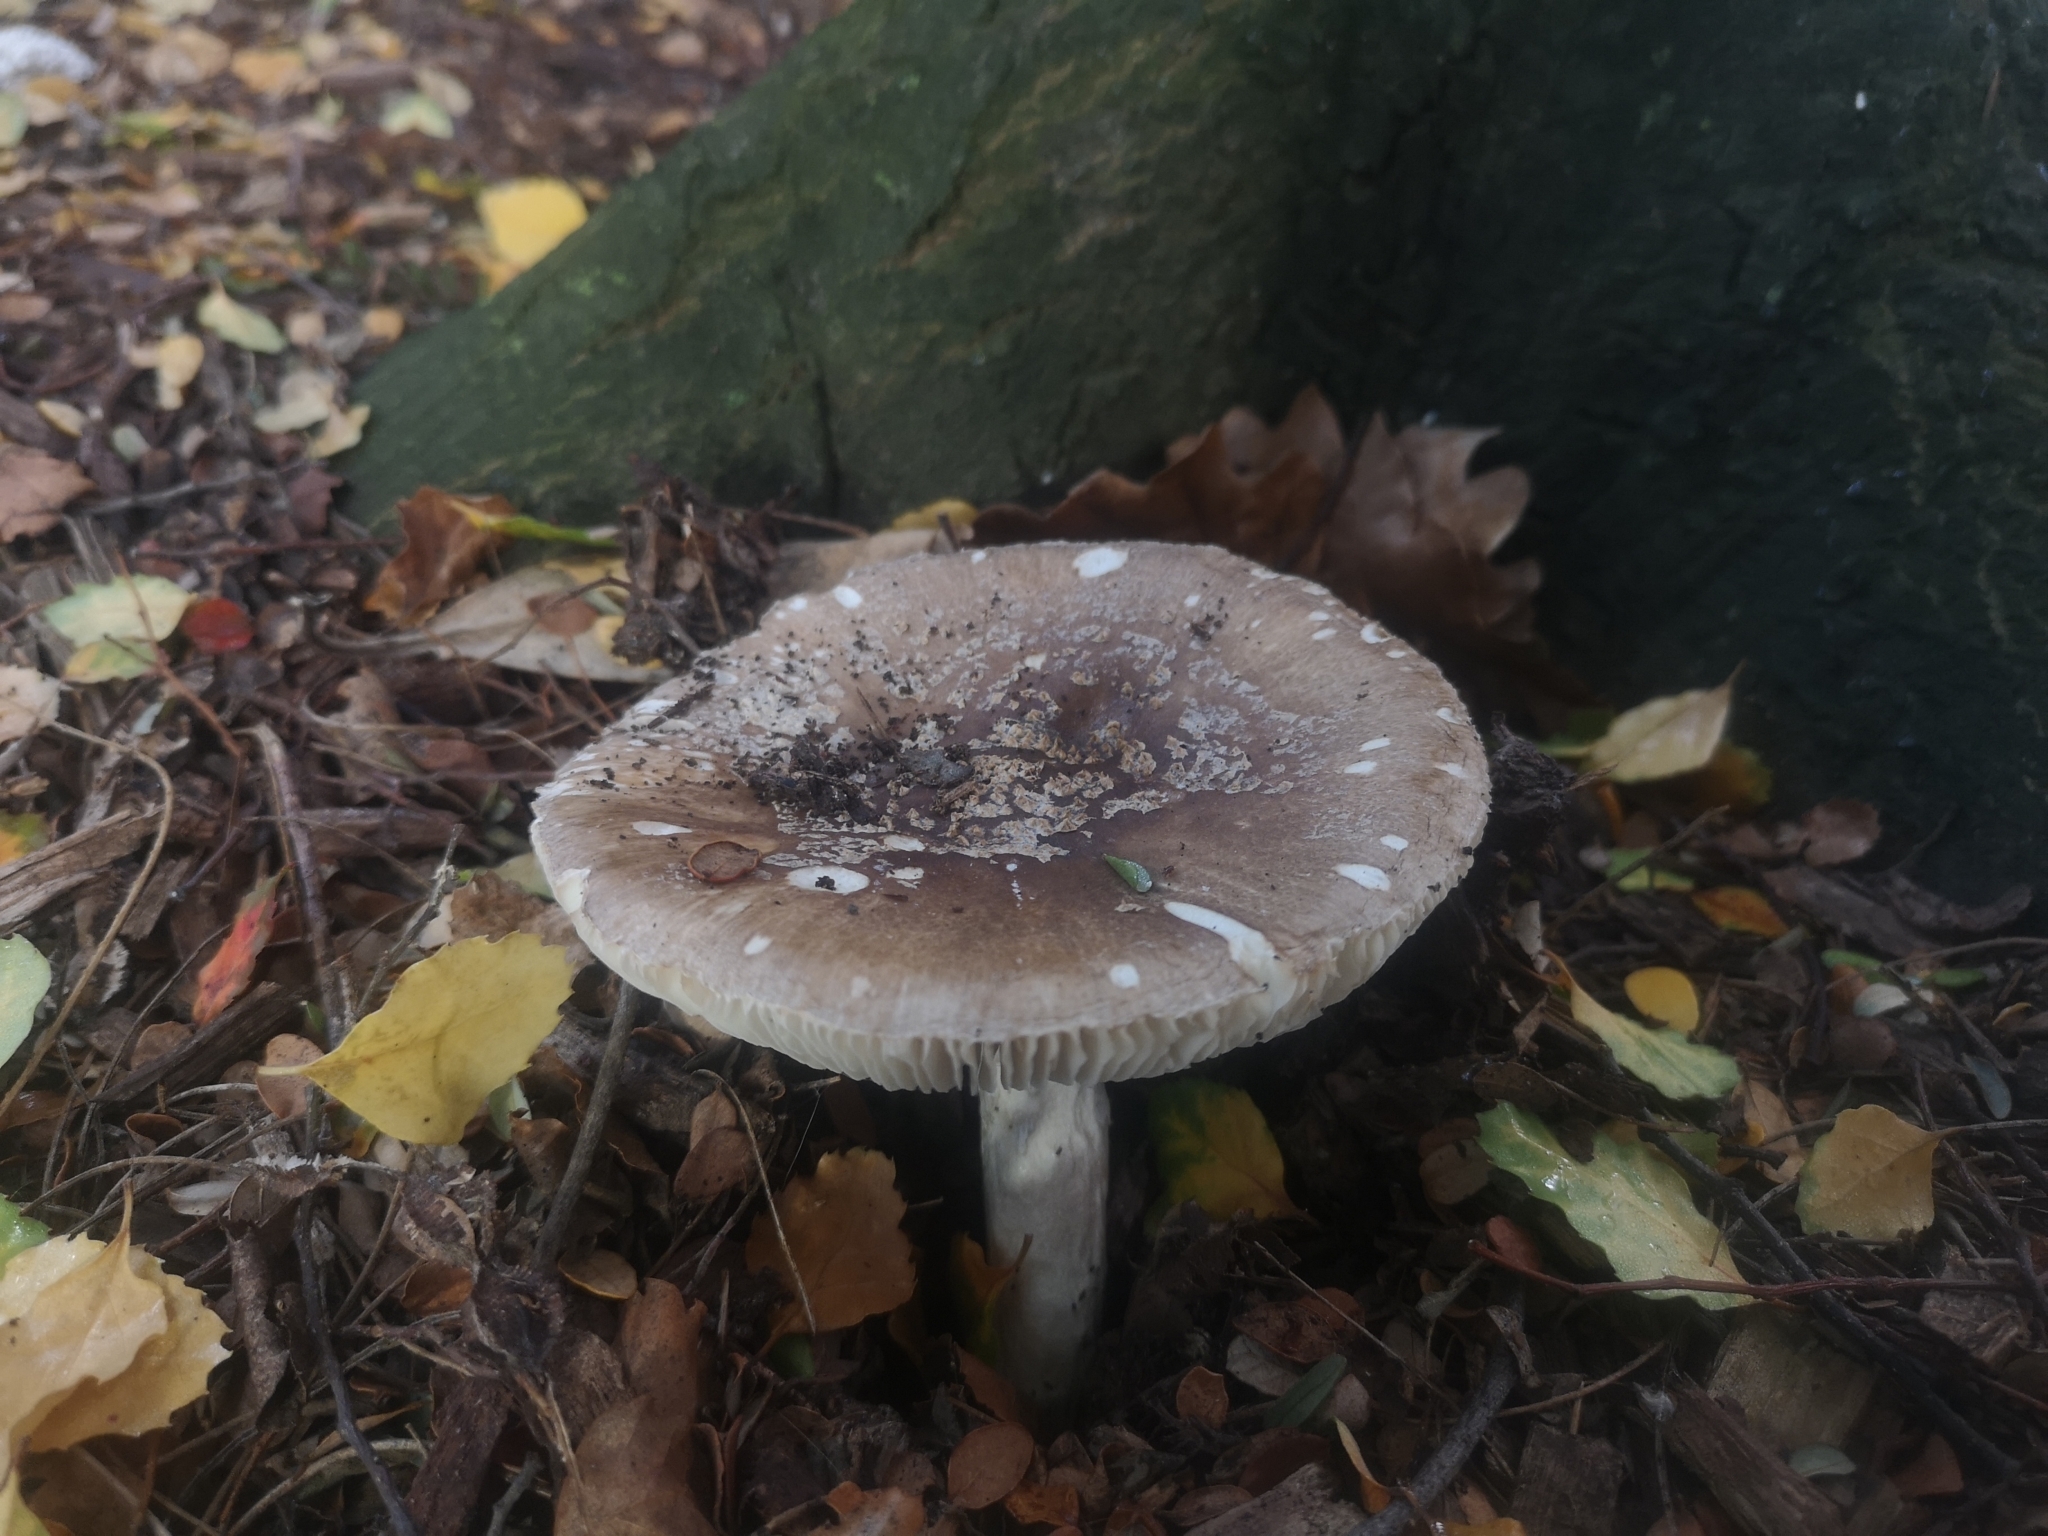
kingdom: Fungi
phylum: Basidiomycota
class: Agaricomycetes
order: Agaricales
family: Amanitaceae
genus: Amanita
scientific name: Amanita excelsa
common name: European false blusher
